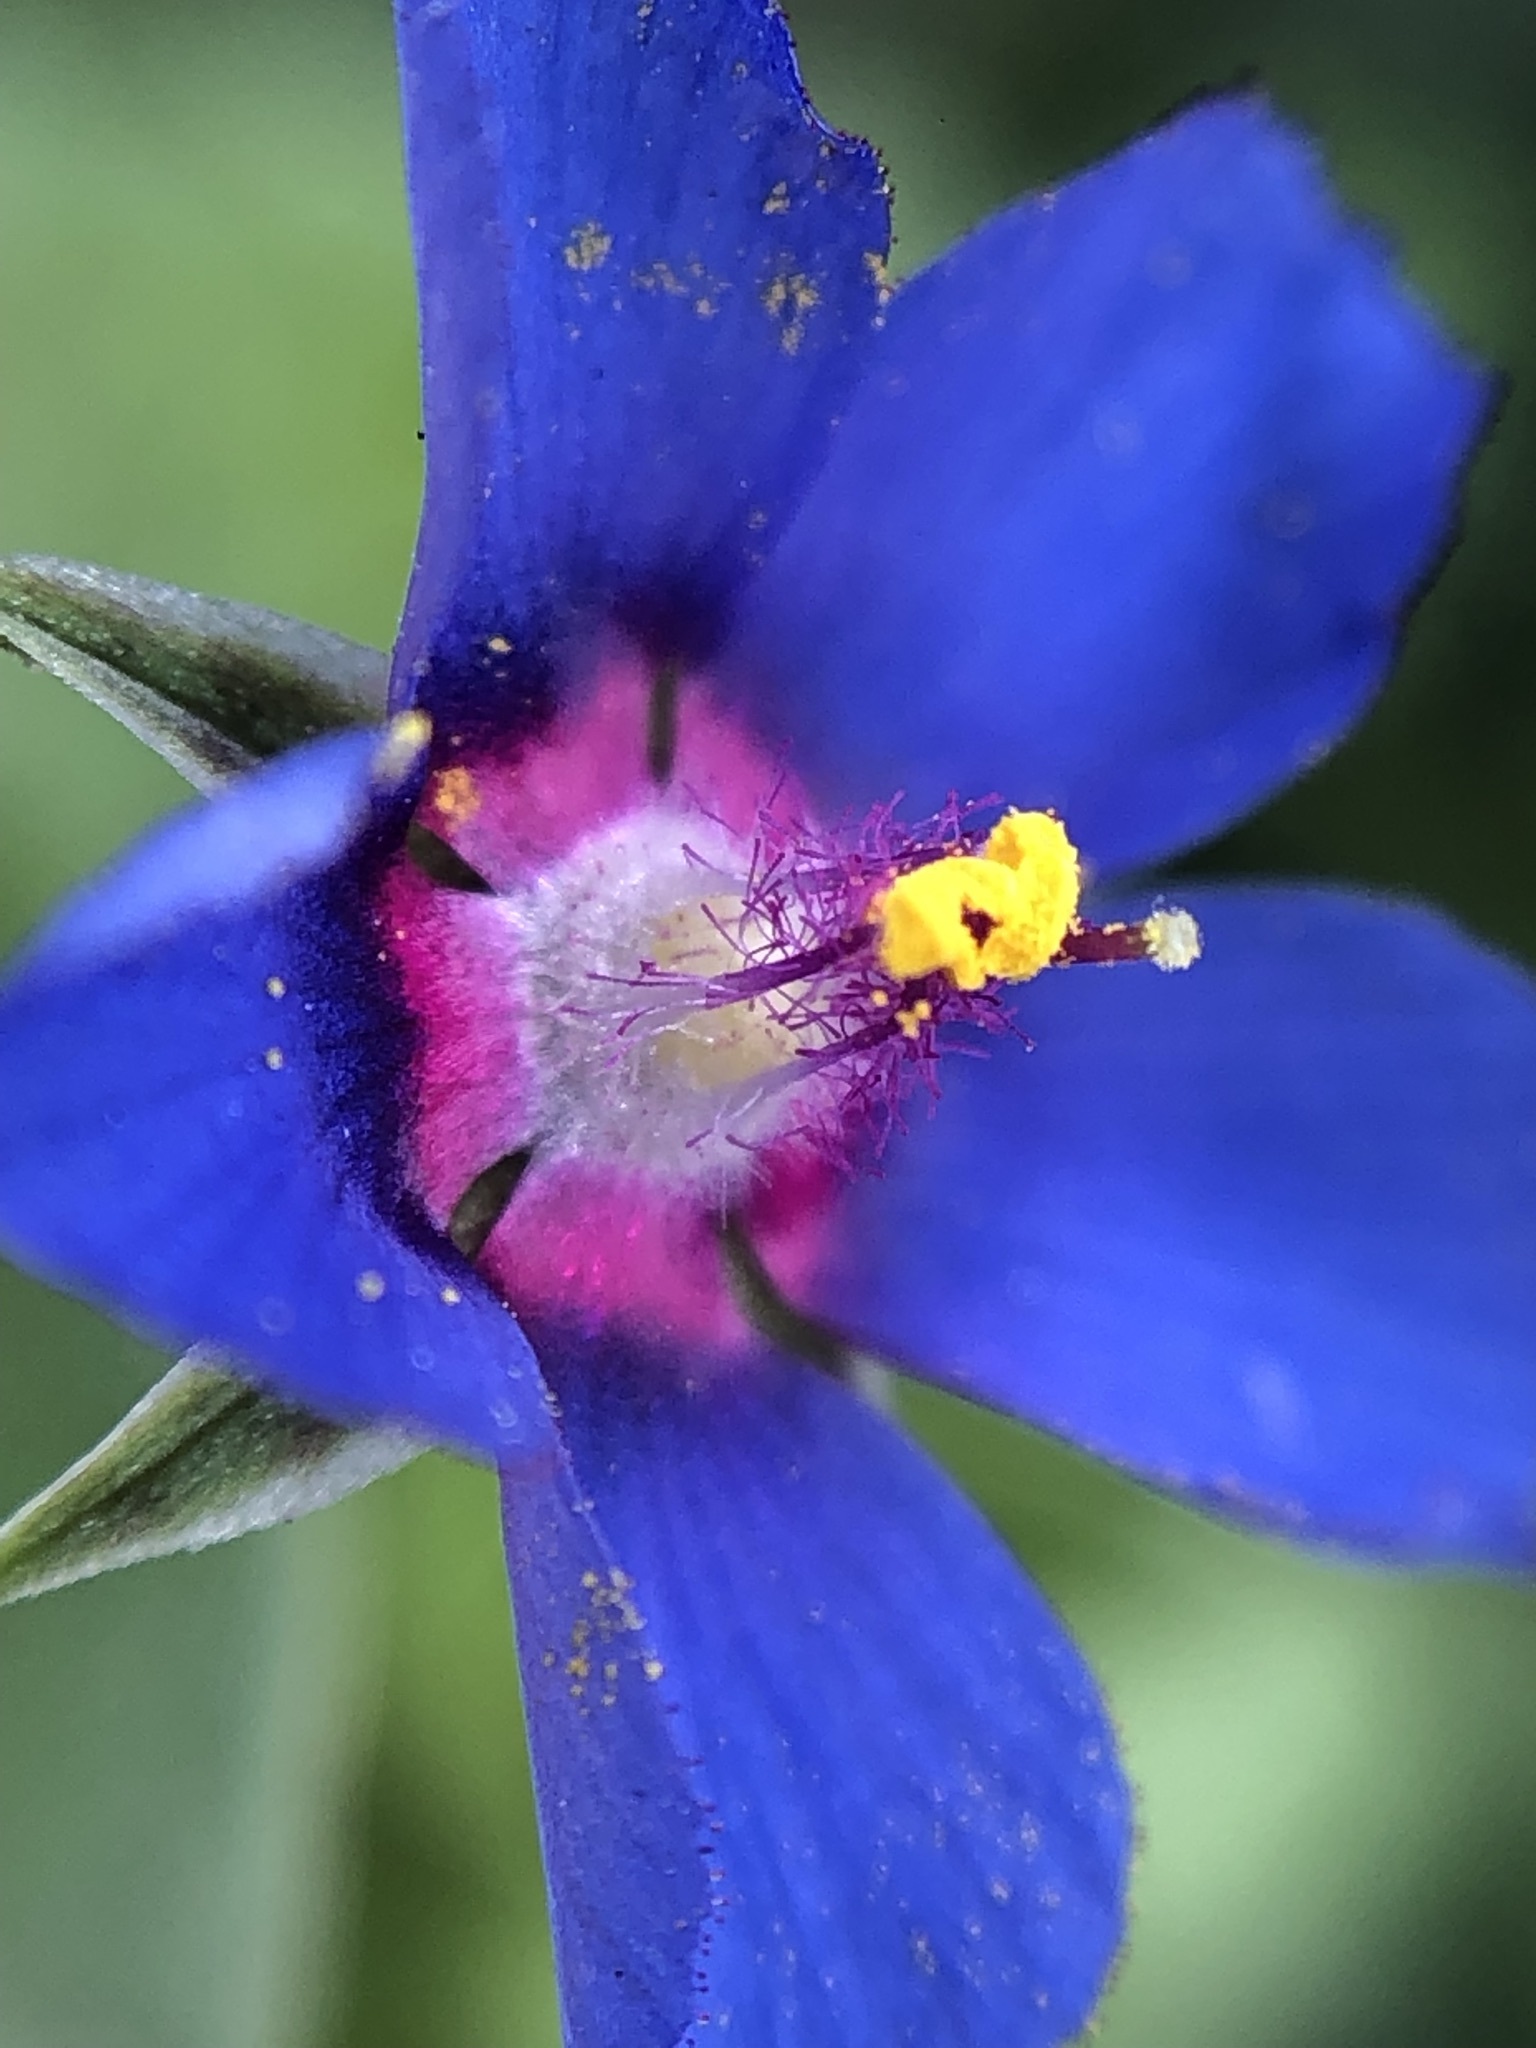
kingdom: Plantae
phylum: Tracheophyta
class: Magnoliopsida
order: Ericales
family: Primulaceae
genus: Lysimachia
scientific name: Lysimachia arvensis
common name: Scarlet pimpernel
